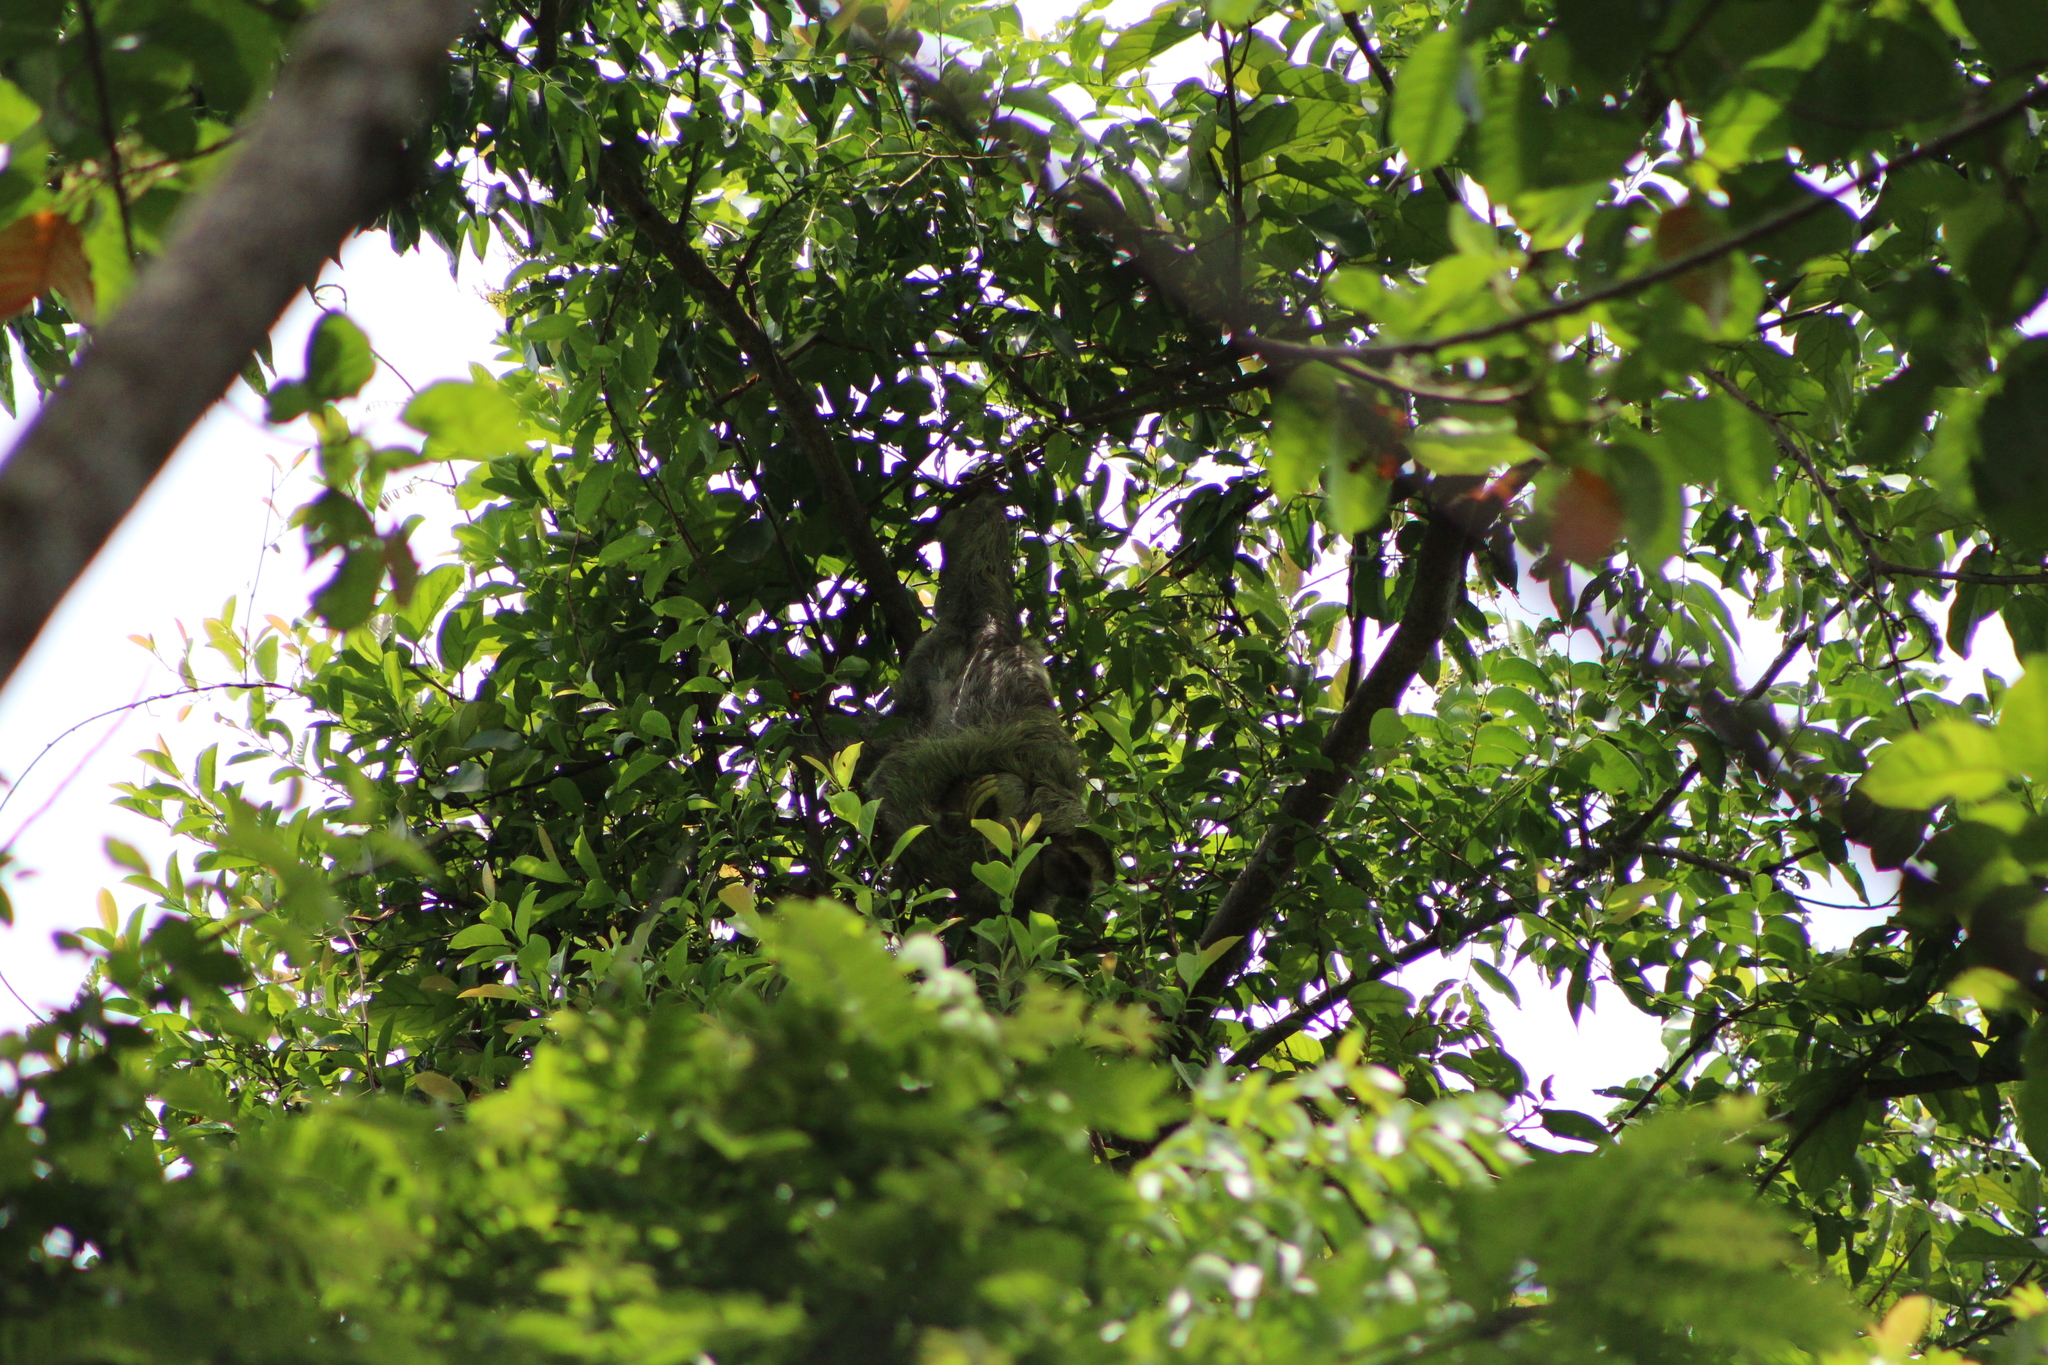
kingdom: Animalia
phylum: Chordata
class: Mammalia
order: Pilosa
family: Bradypodidae
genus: Bradypus
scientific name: Bradypus variegatus
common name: Brown-throated three-toed sloth
